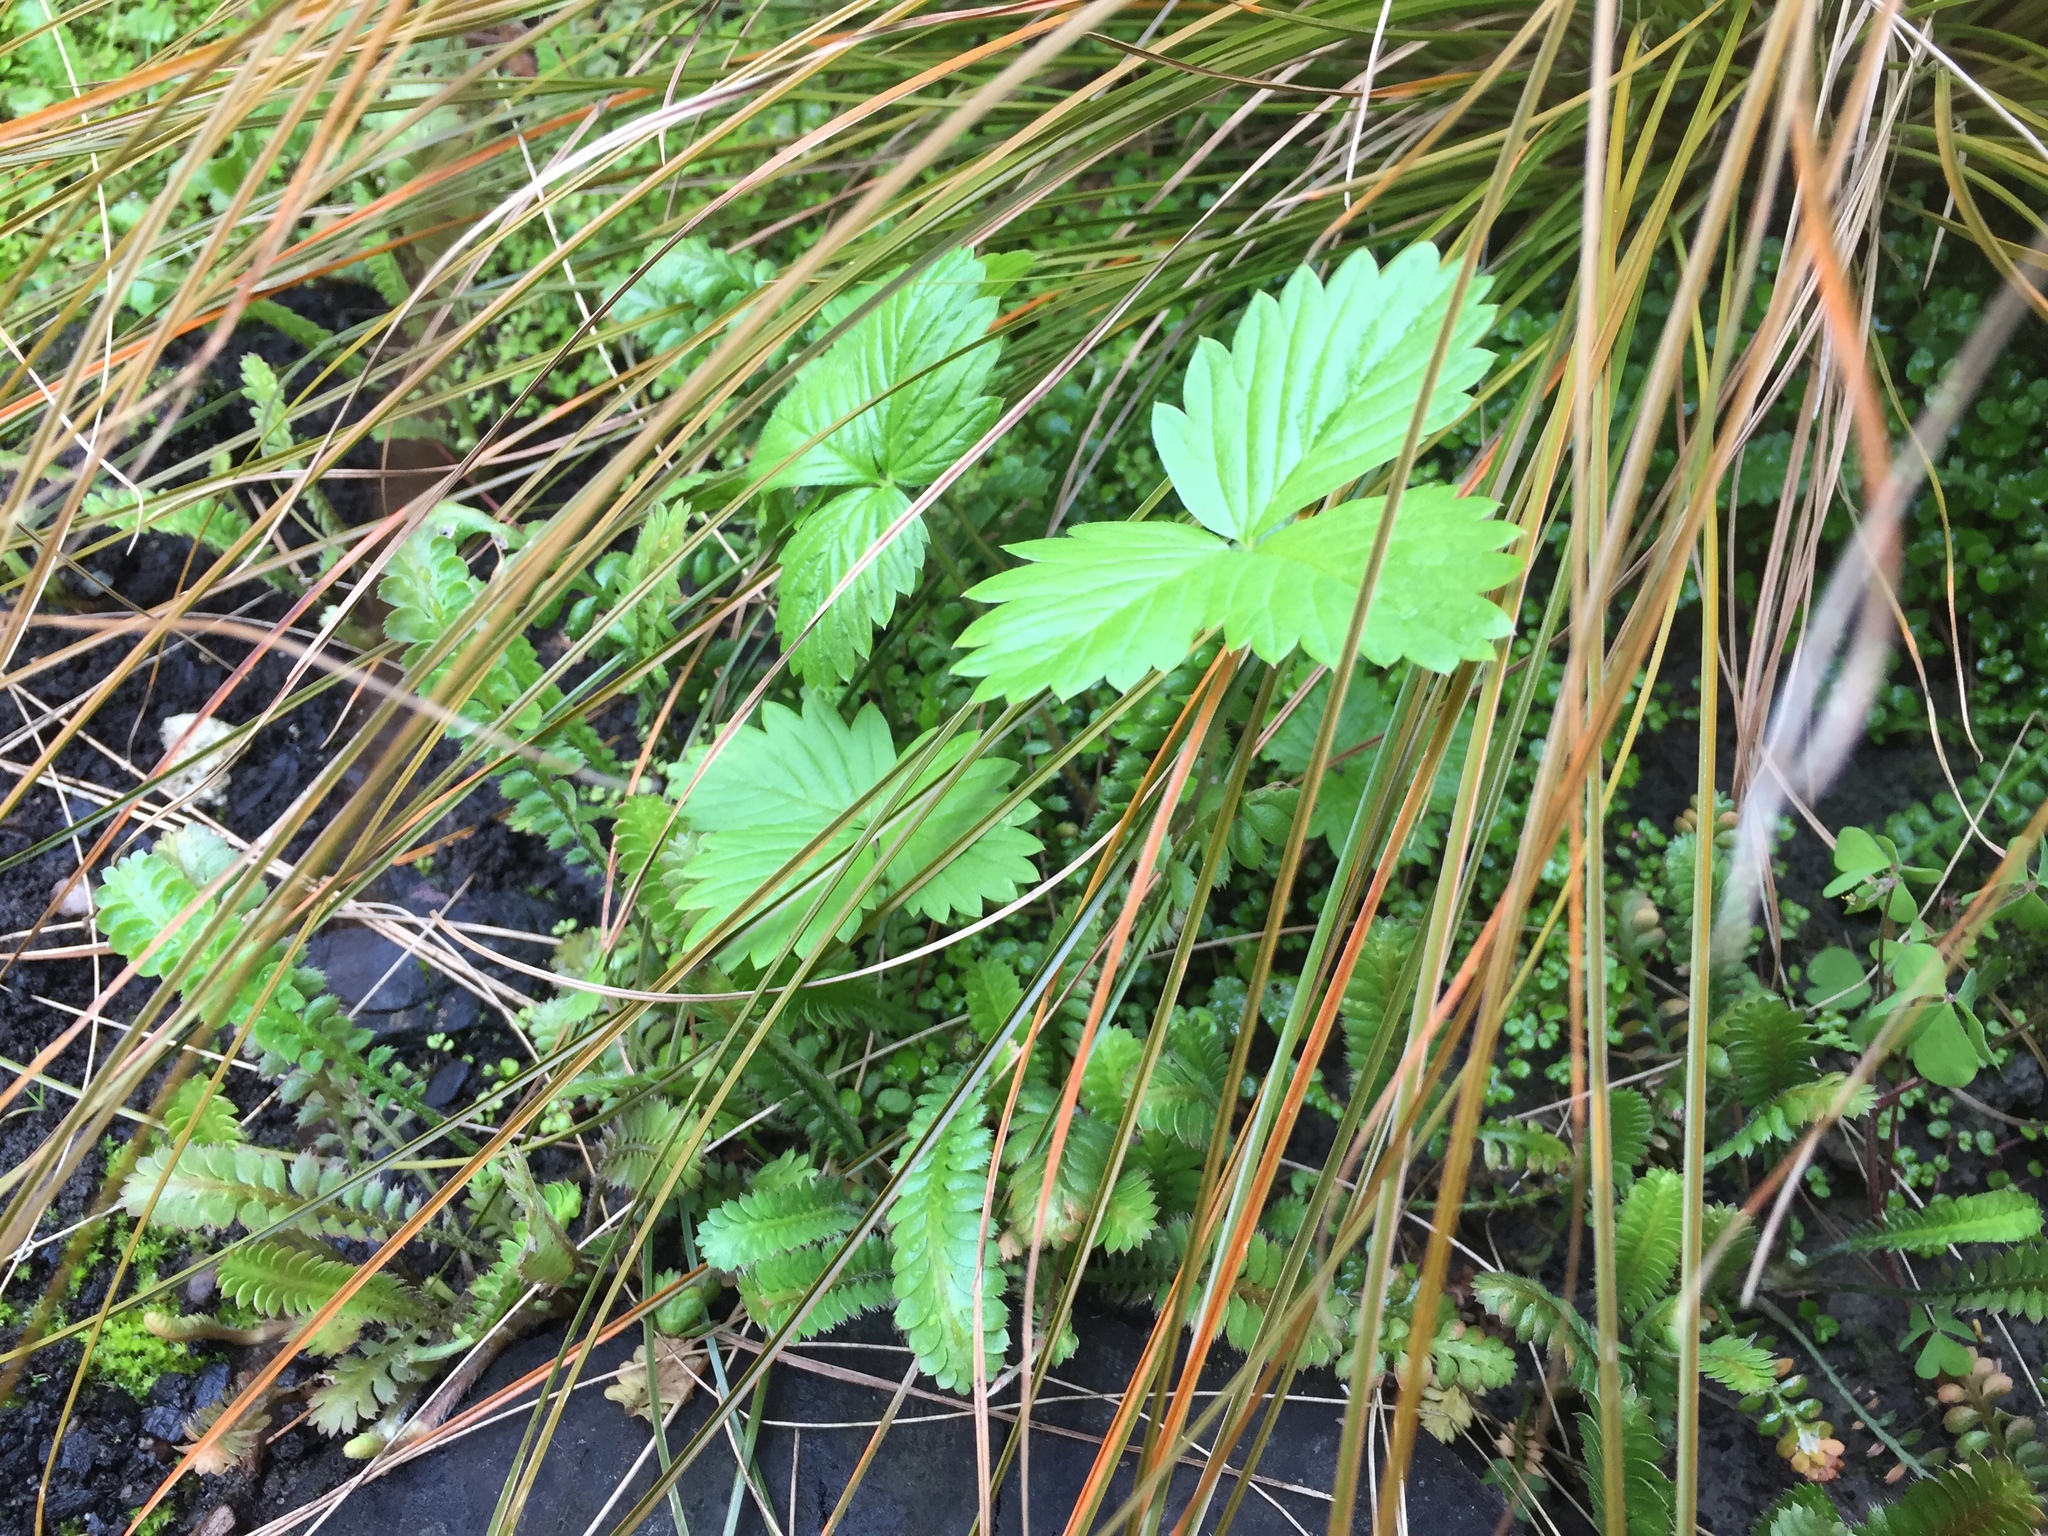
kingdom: Plantae
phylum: Tracheophyta
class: Magnoliopsida
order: Rosales
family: Rosaceae
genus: Fragaria
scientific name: Fragaria vesca
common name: Wild strawberry
